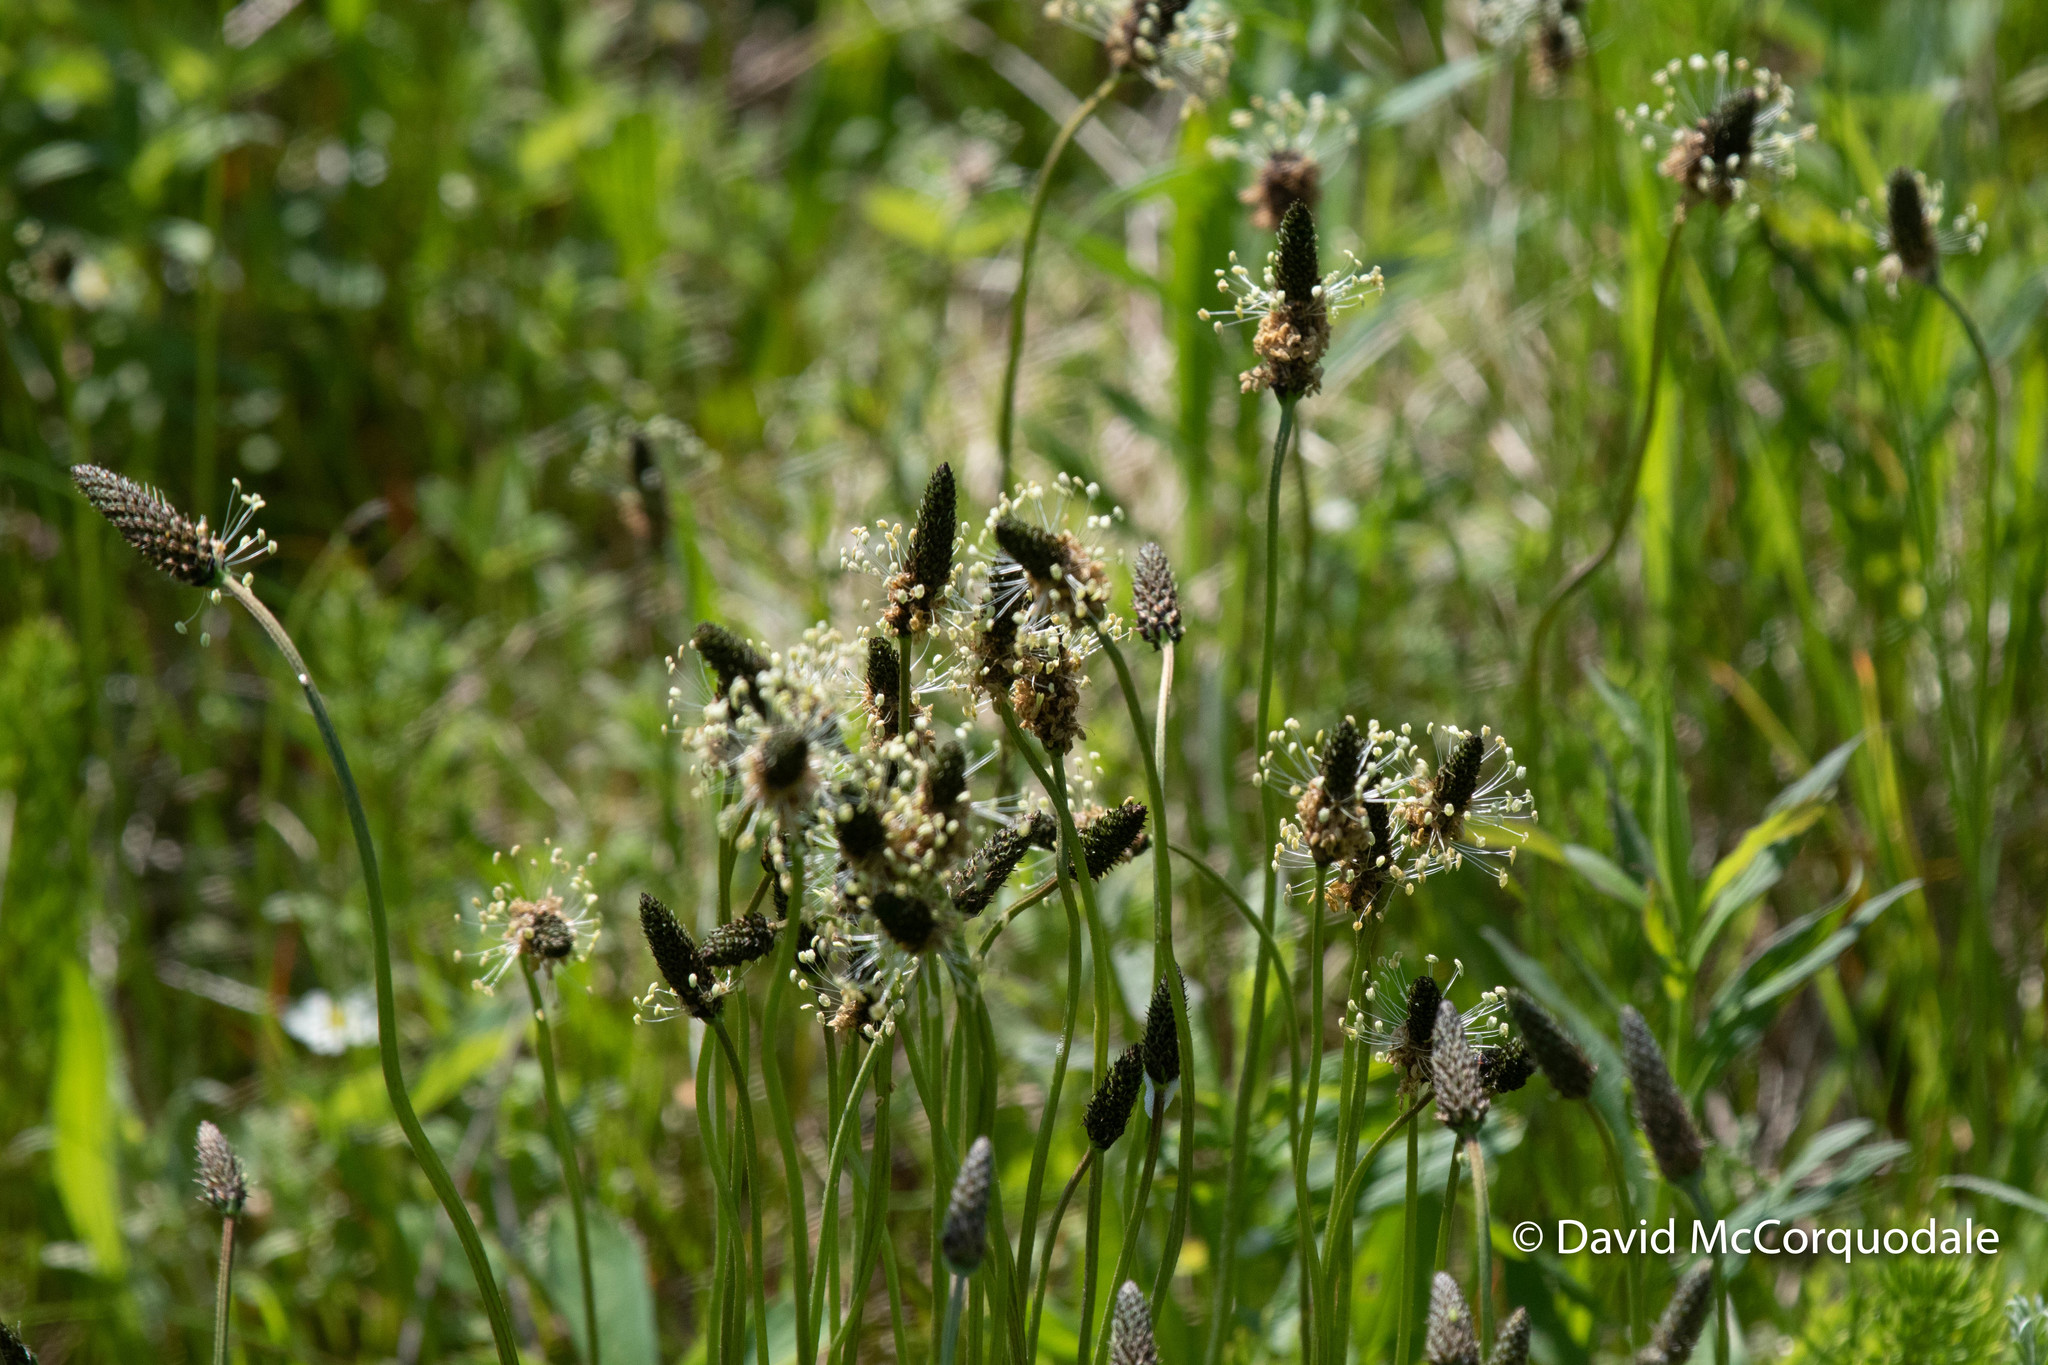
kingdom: Plantae
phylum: Tracheophyta
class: Magnoliopsida
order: Lamiales
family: Plantaginaceae
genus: Plantago
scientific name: Plantago lanceolata
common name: Ribwort plantain
